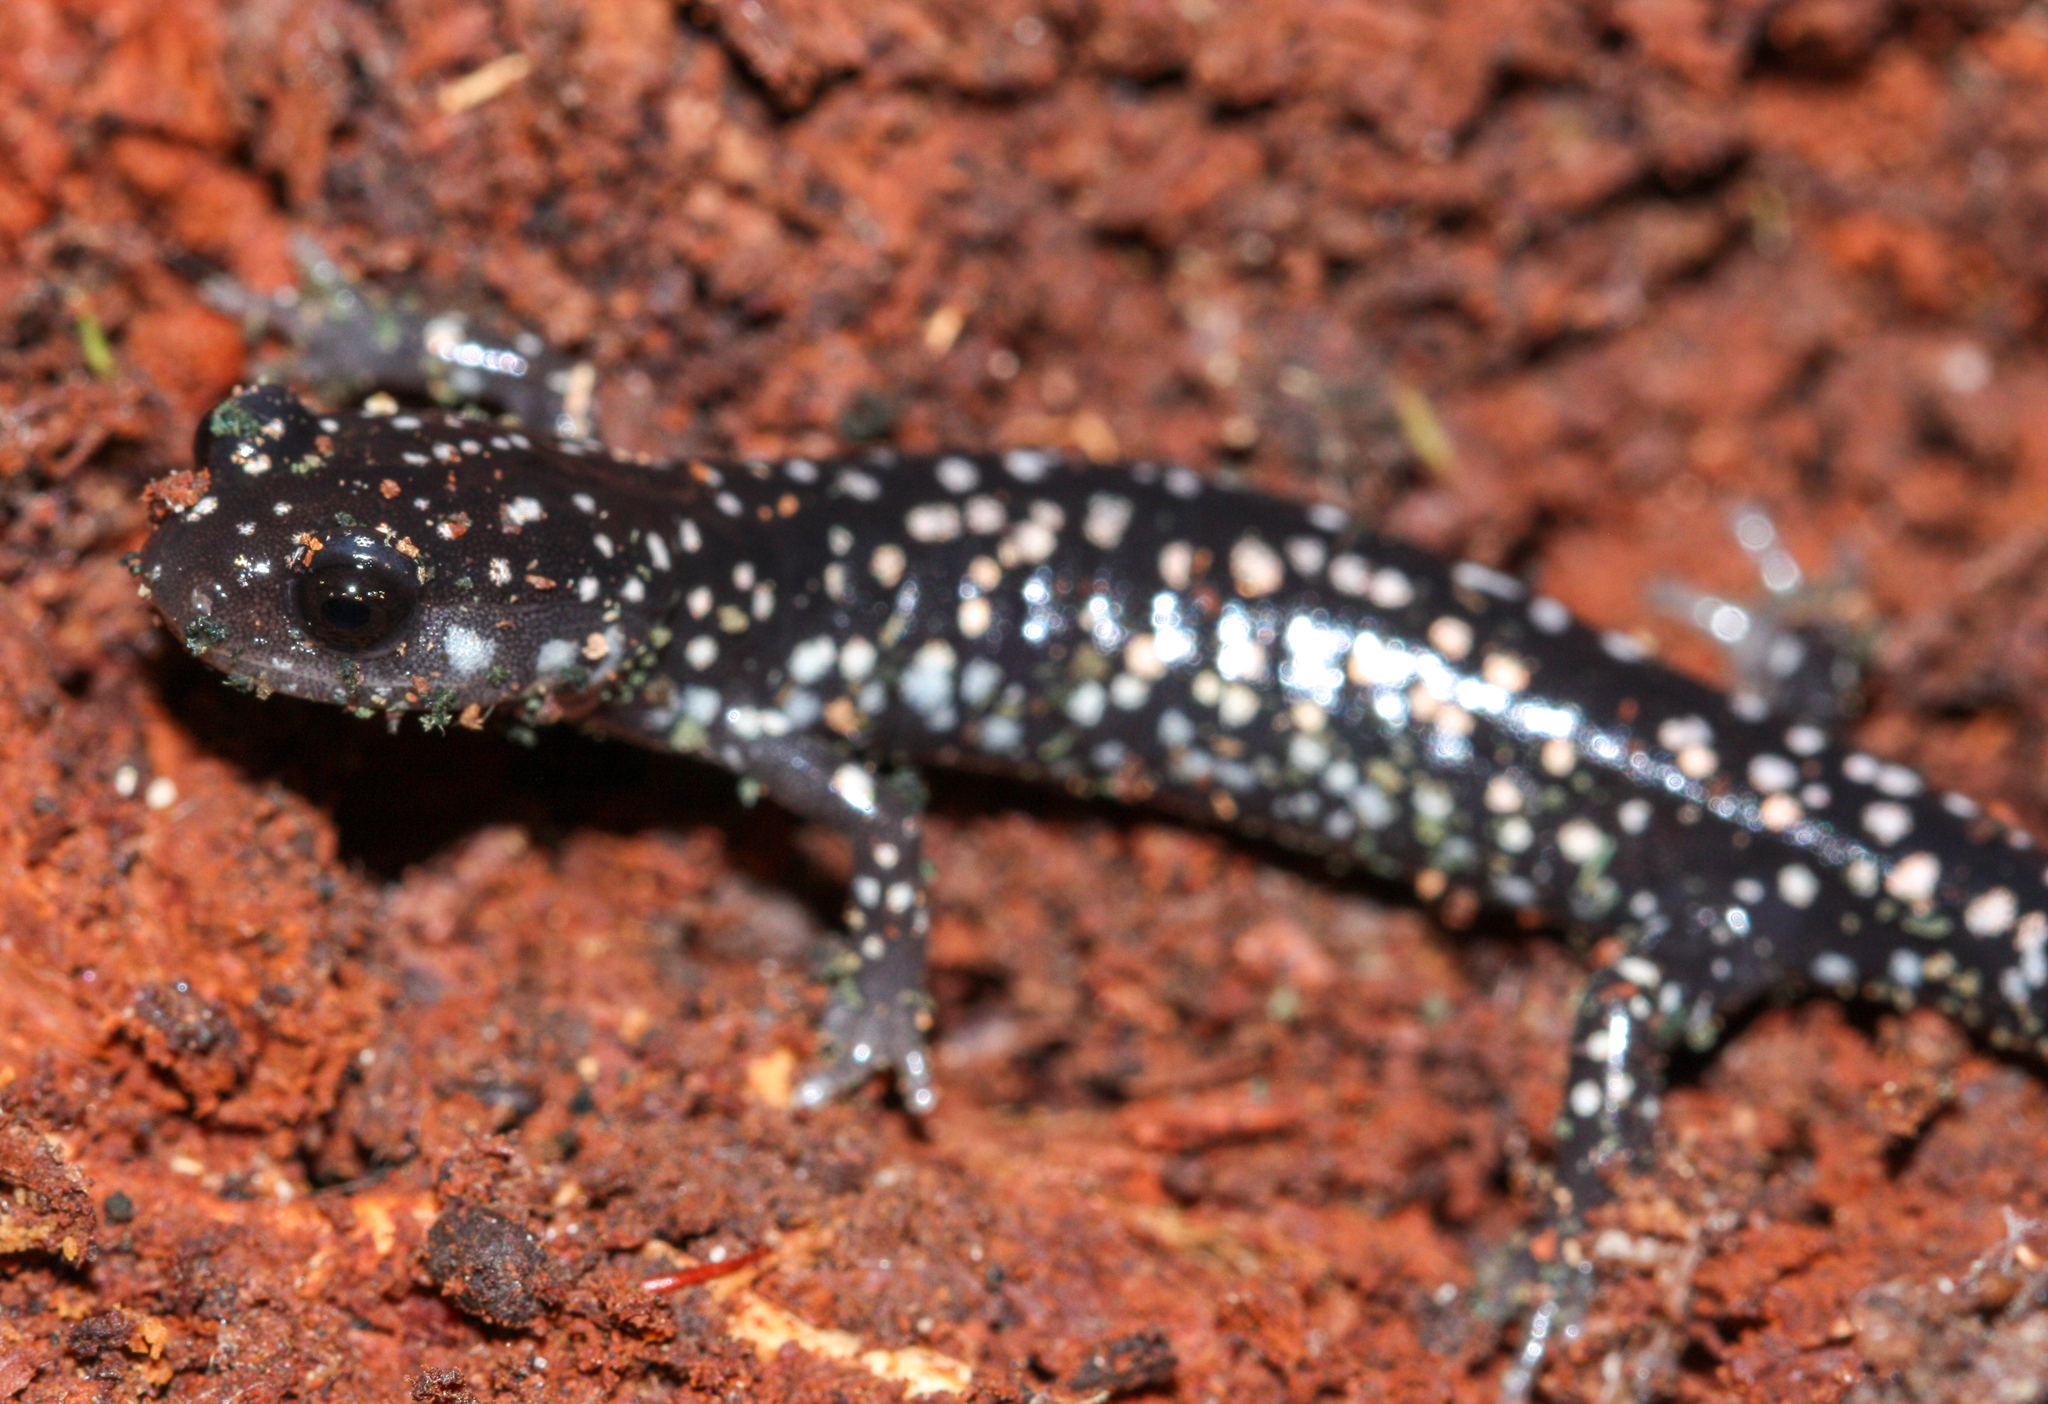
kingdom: Animalia
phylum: Chordata
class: Amphibia
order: Caudata
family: Plethodontidae
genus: Plethodon
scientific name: Plethodon glutinosus
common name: Northern slimy salamander
